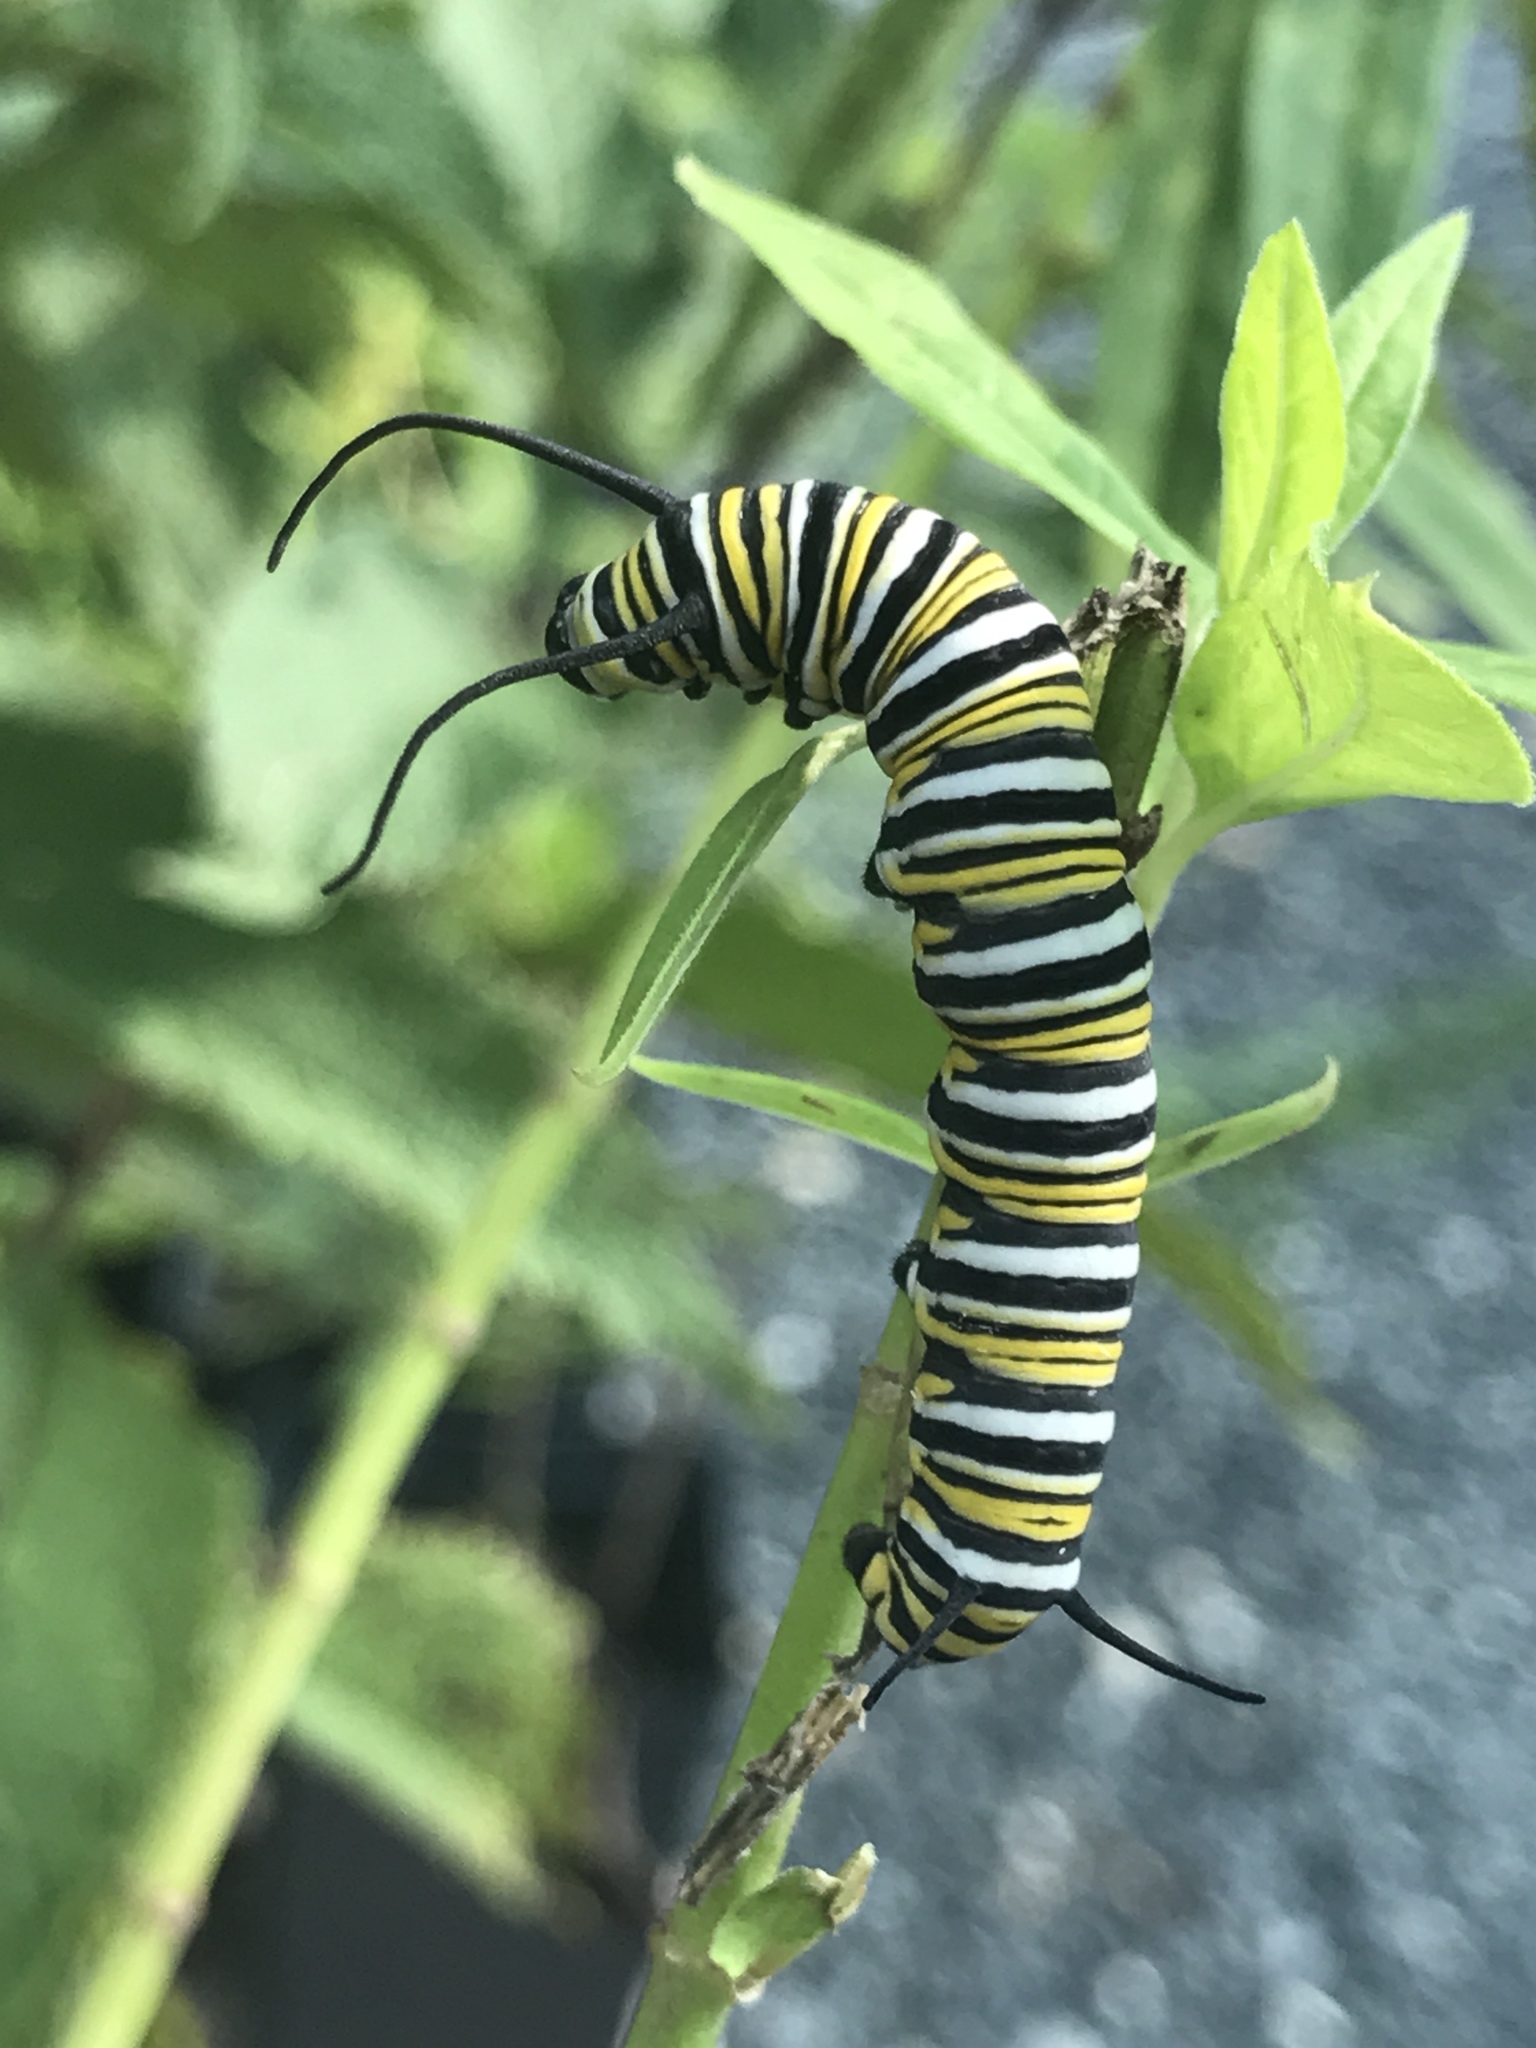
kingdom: Animalia
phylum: Arthropoda
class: Insecta
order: Lepidoptera
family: Nymphalidae
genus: Danaus
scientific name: Danaus plexippus
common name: Monarch
